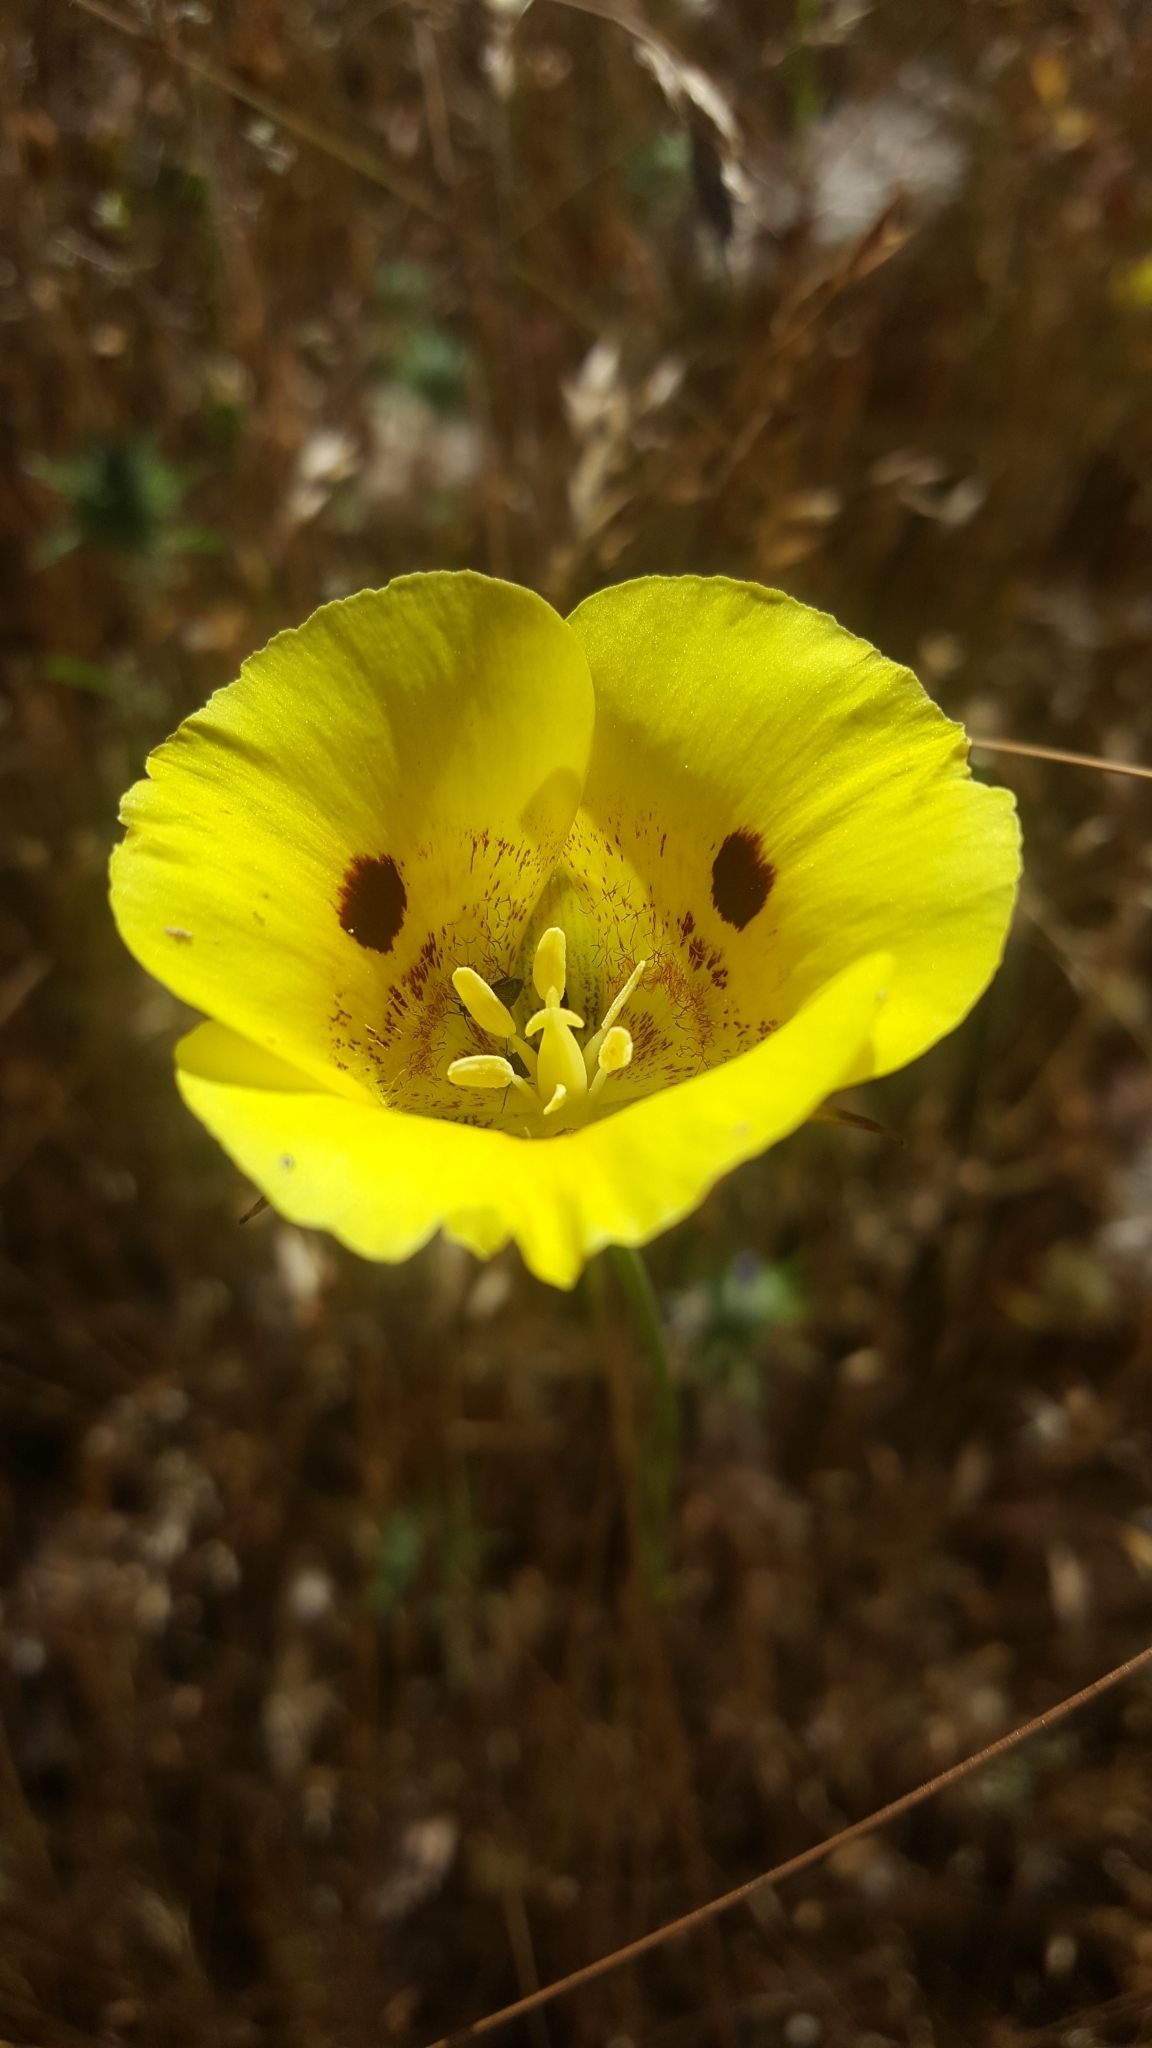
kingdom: Plantae
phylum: Tracheophyta
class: Liliopsida
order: Liliales
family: Liliaceae
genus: Calochortus
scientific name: Calochortus luteus
